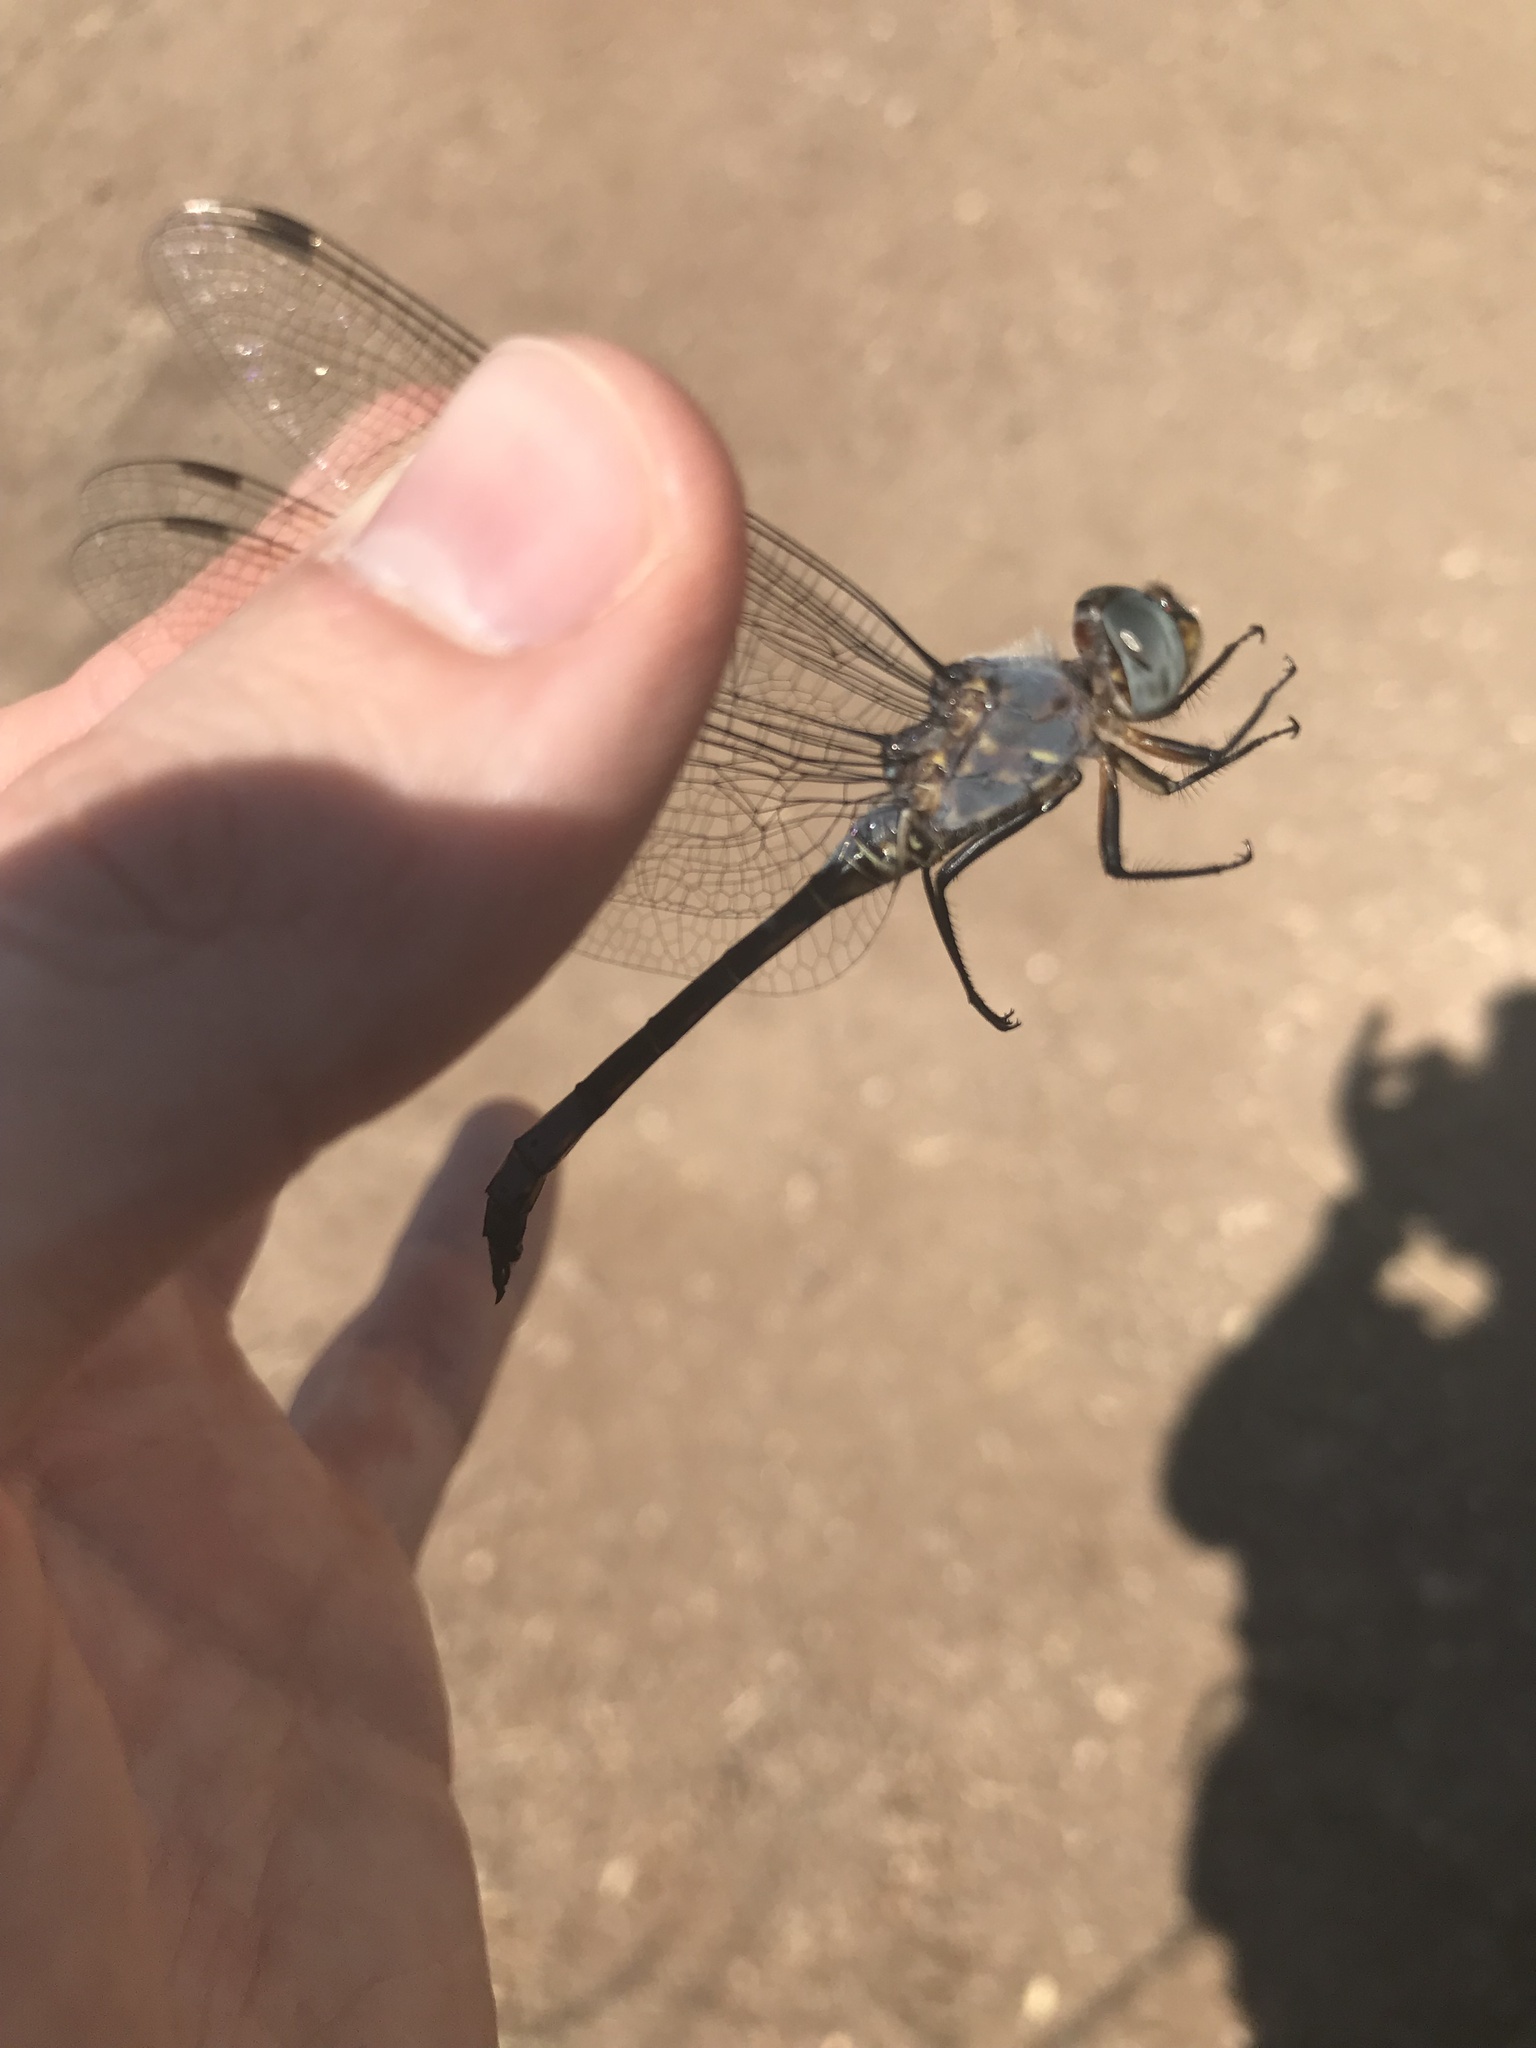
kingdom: Animalia
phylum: Arthropoda
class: Insecta
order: Odonata
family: Libellulidae
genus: Zygonyx
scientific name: Zygonyx natalensis
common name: Blue cascader
